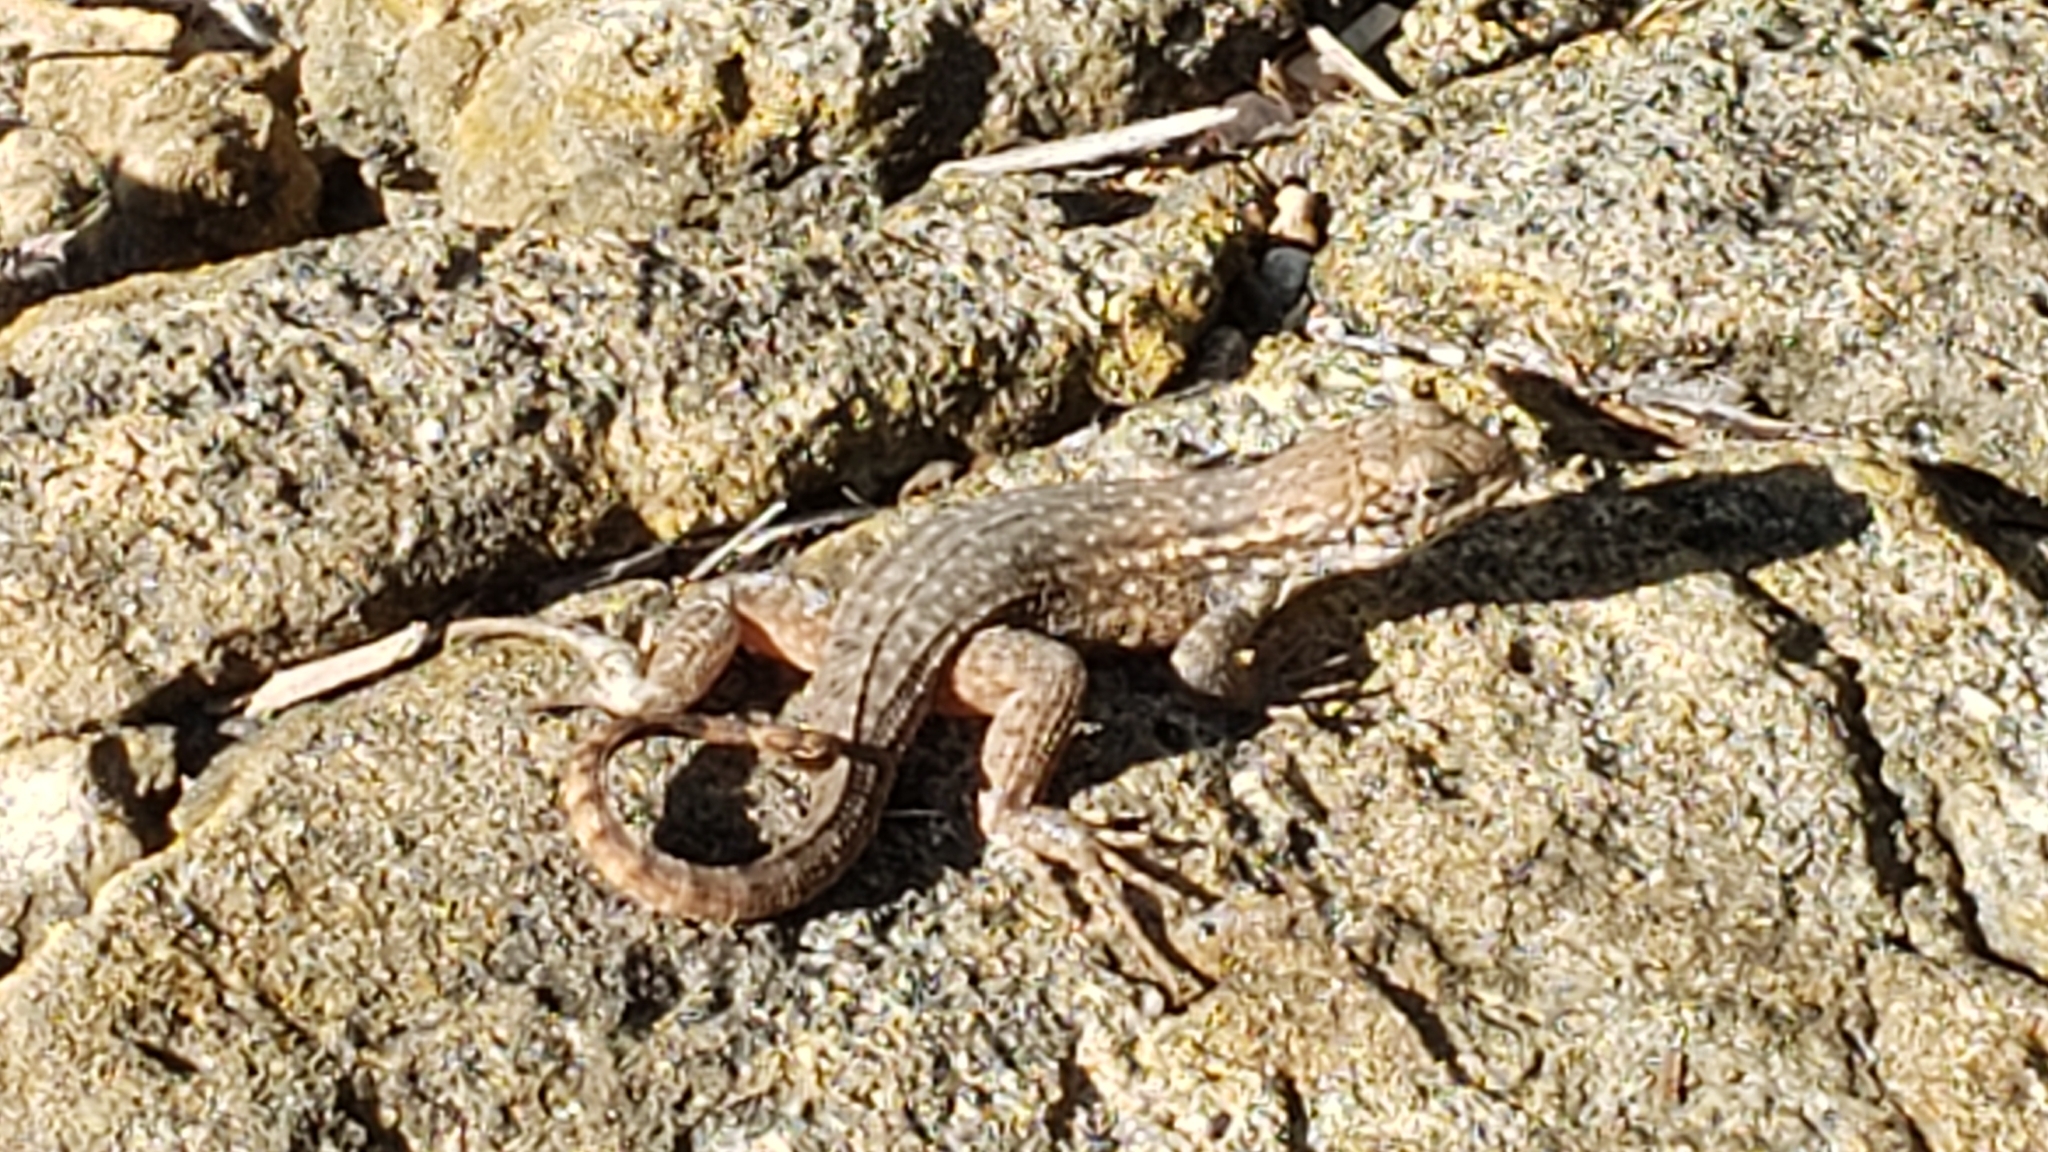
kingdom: Animalia
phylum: Chordata
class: Squamata
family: Leiocephalidae
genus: Leiocephalus
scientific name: Leiocephalus carinatus
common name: Northern curly-tailed lizard
